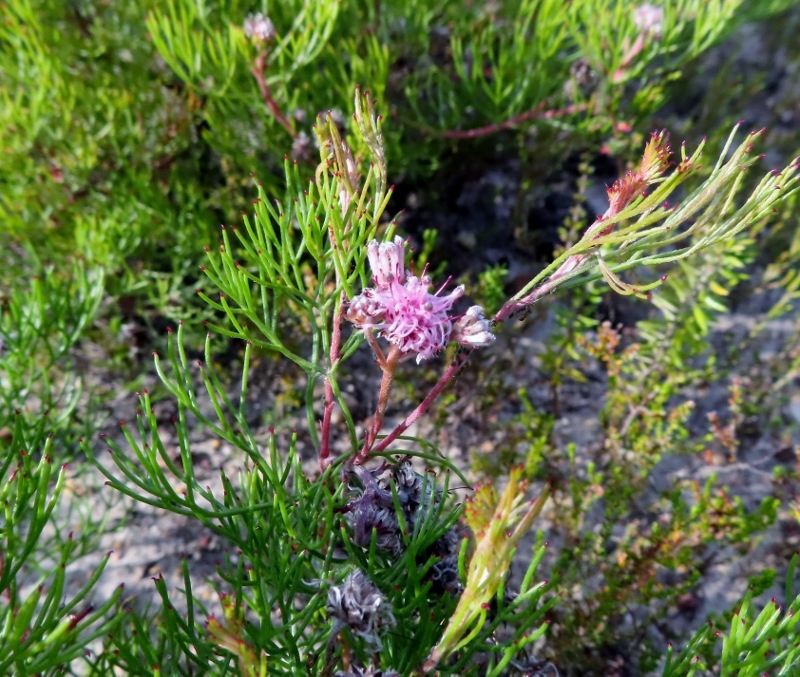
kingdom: Plantae
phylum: Tracheophyta
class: Magnoliopsida
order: Proteales
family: Proteaceae
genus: Serruria
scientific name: Serruria fasciflora
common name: Common pin spiderhead
